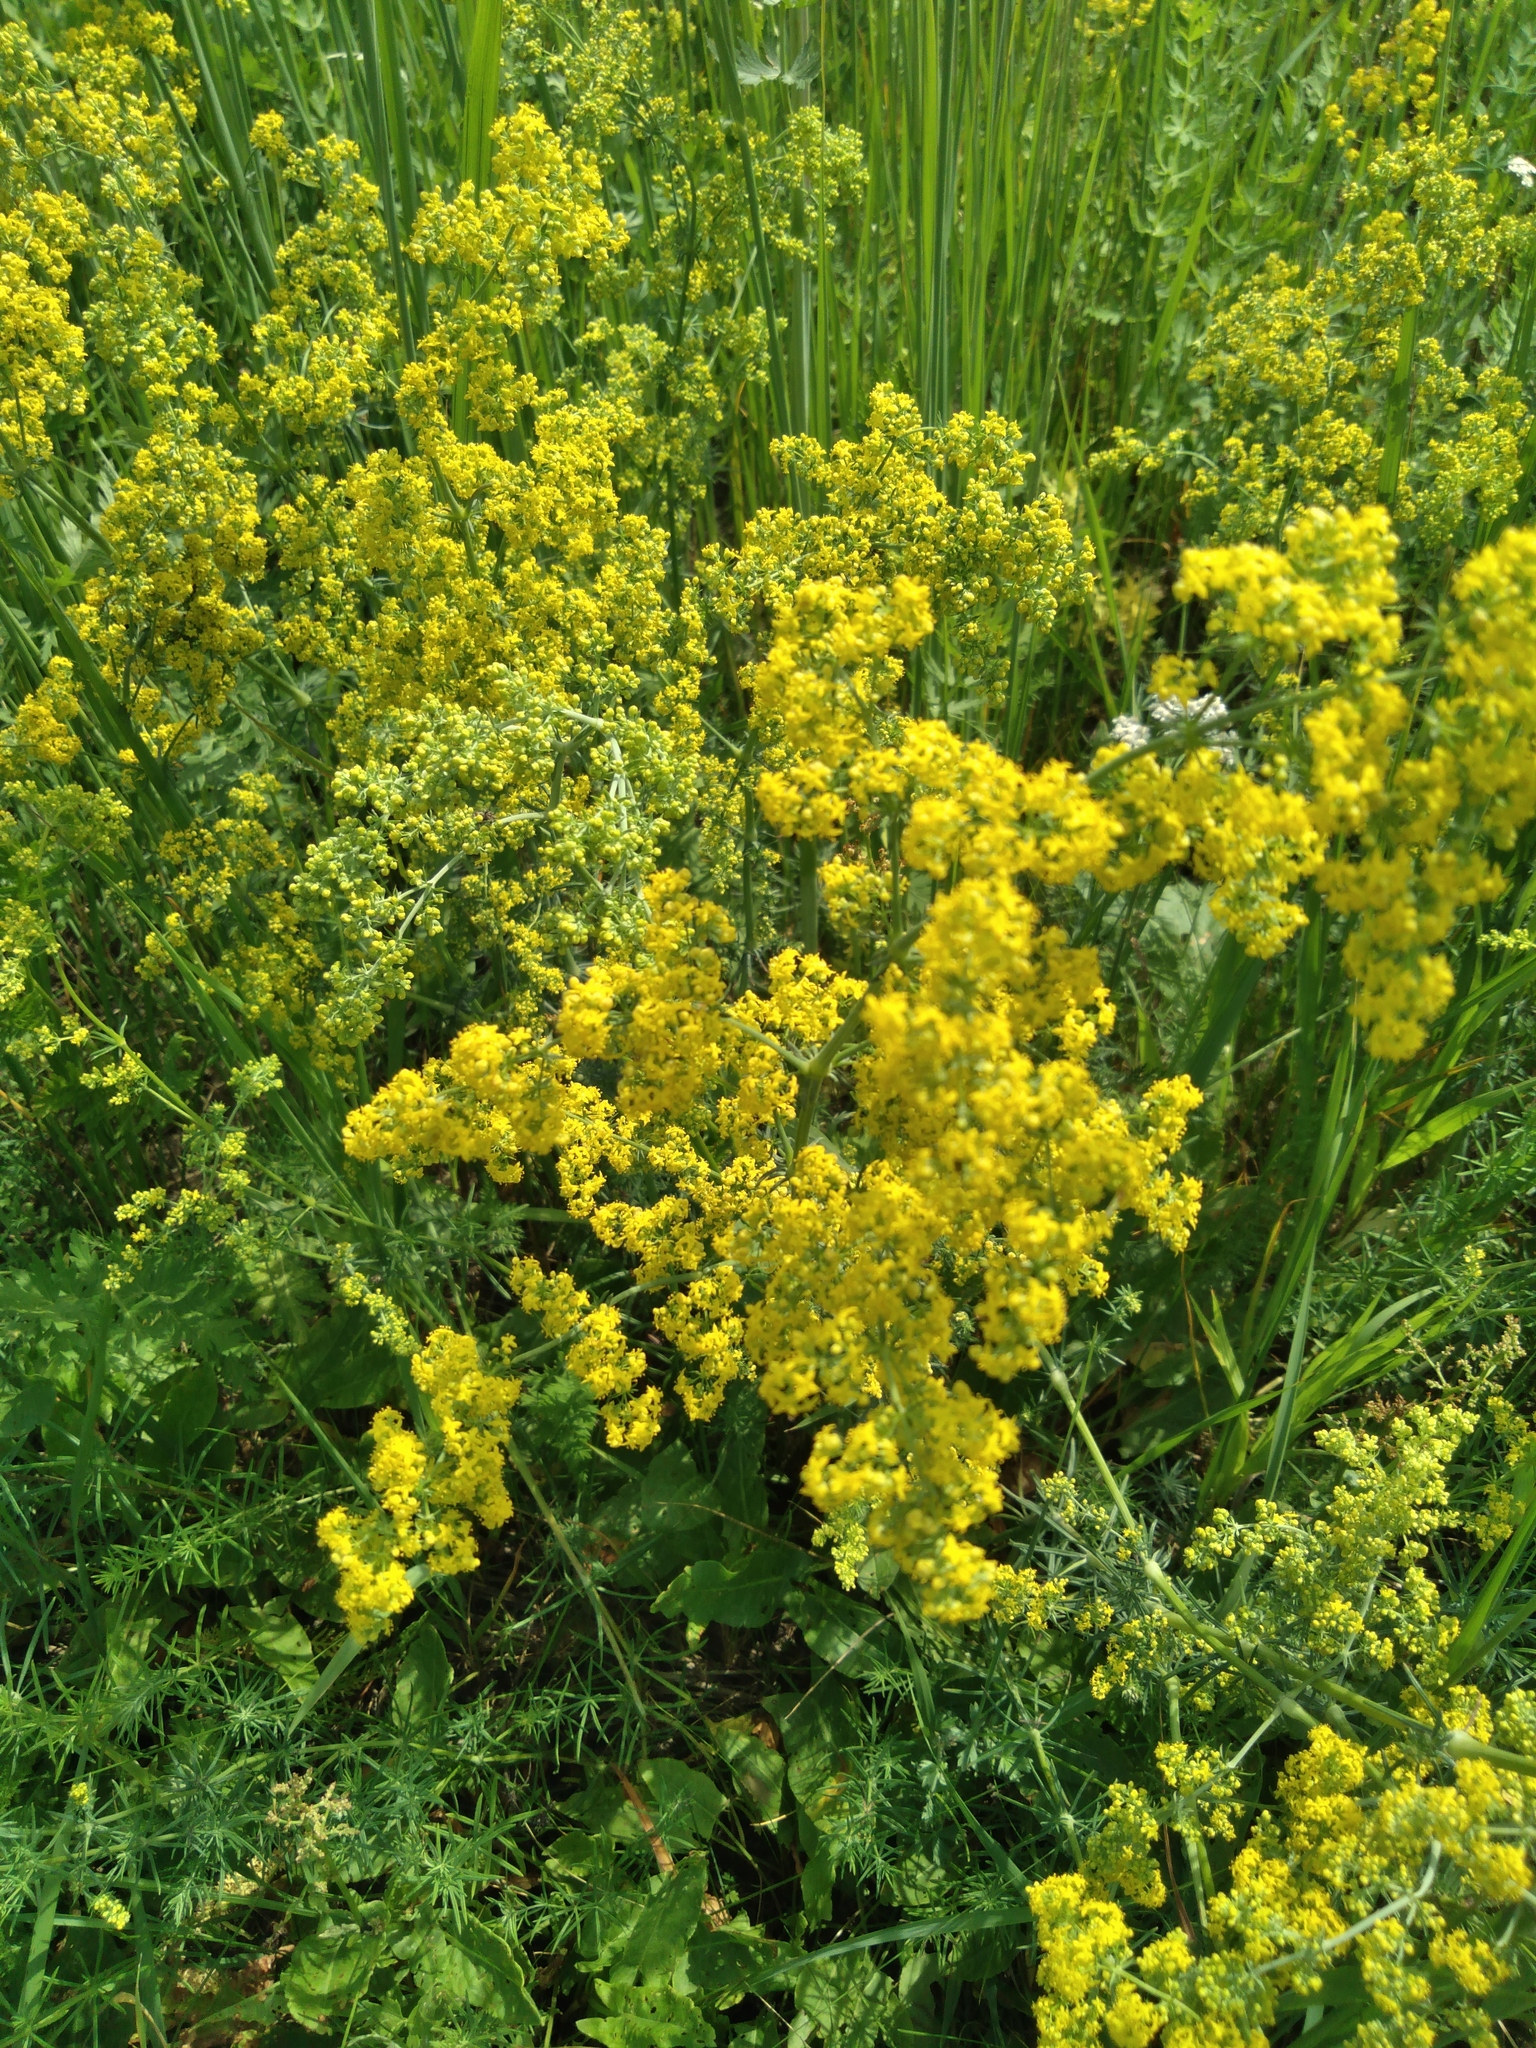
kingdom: Plantae
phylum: Tracheophyta
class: Magnoliopsida
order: Gentianales
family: Rubiaceae
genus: Galium
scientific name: Galium verum
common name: Lady's bedstraw
